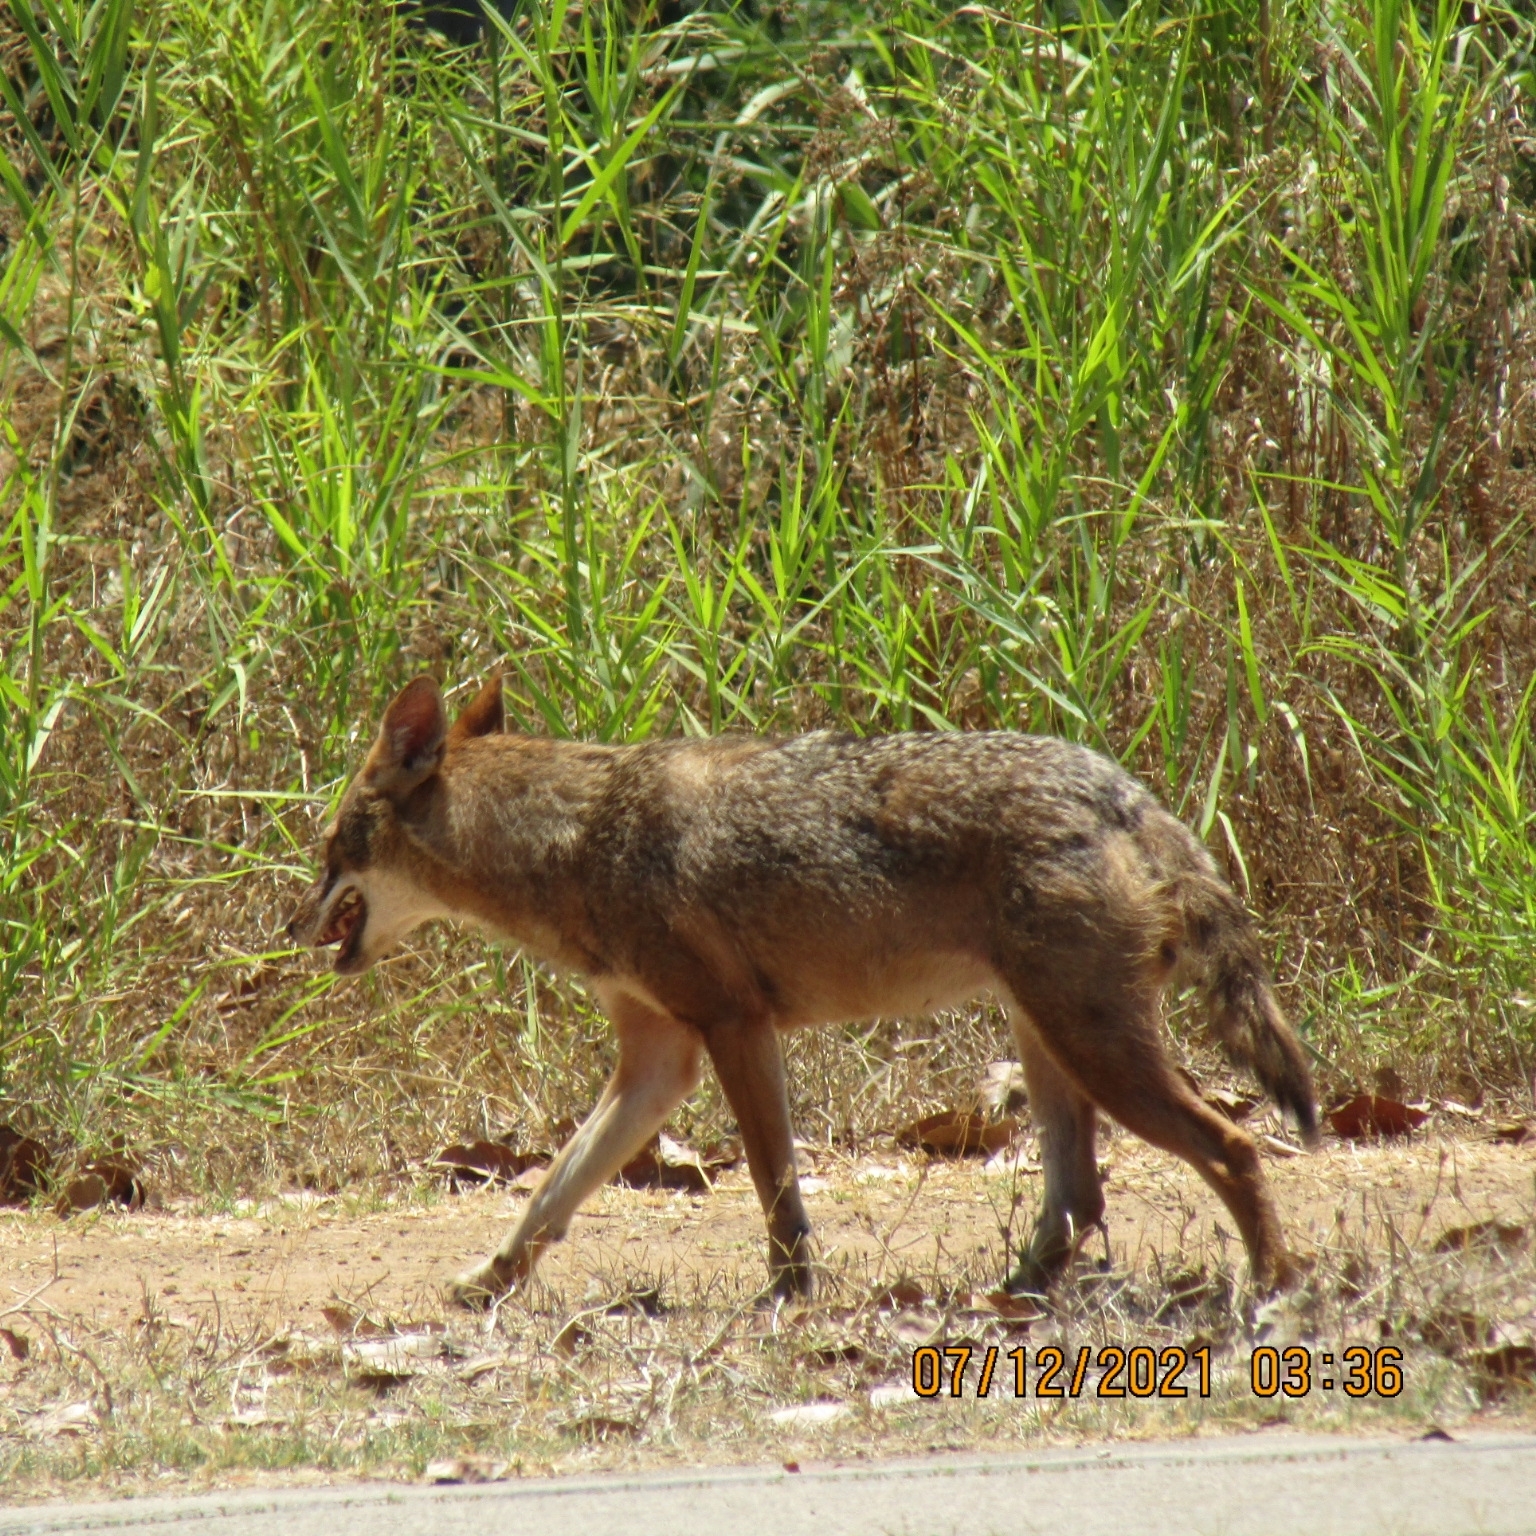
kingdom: Animalia
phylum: Chordata
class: Mammalia
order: Carnivora
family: Canidae
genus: Canis
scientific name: Canis aureus
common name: Golden jackal
